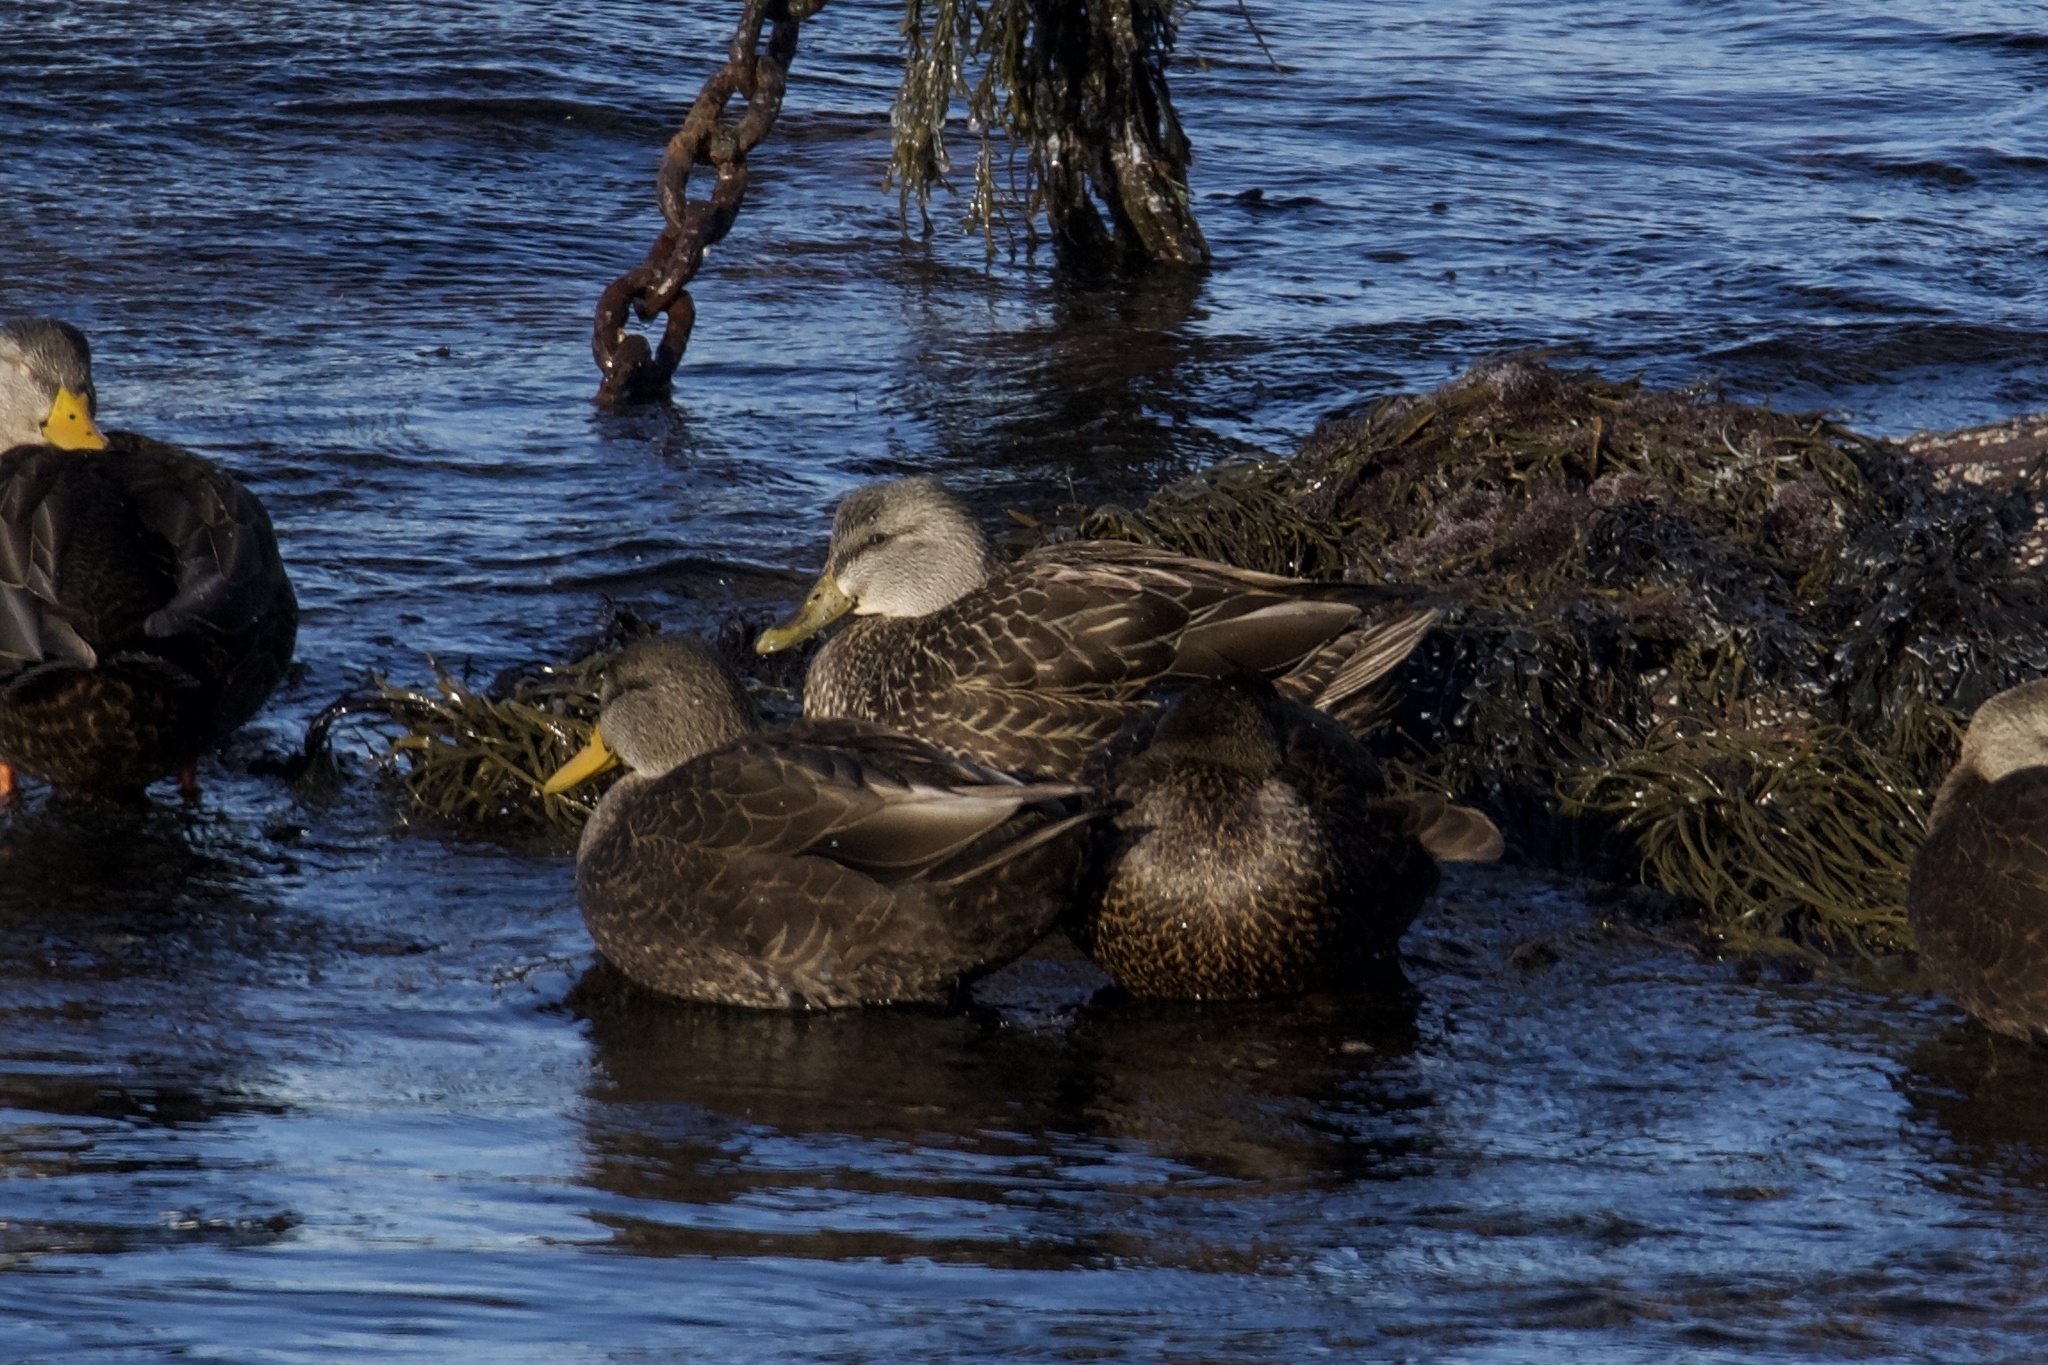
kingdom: Animalia
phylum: Chordata
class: Aves
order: Anseriformes
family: Anatidae
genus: Anas
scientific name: Anas rubripes
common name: American black duck
